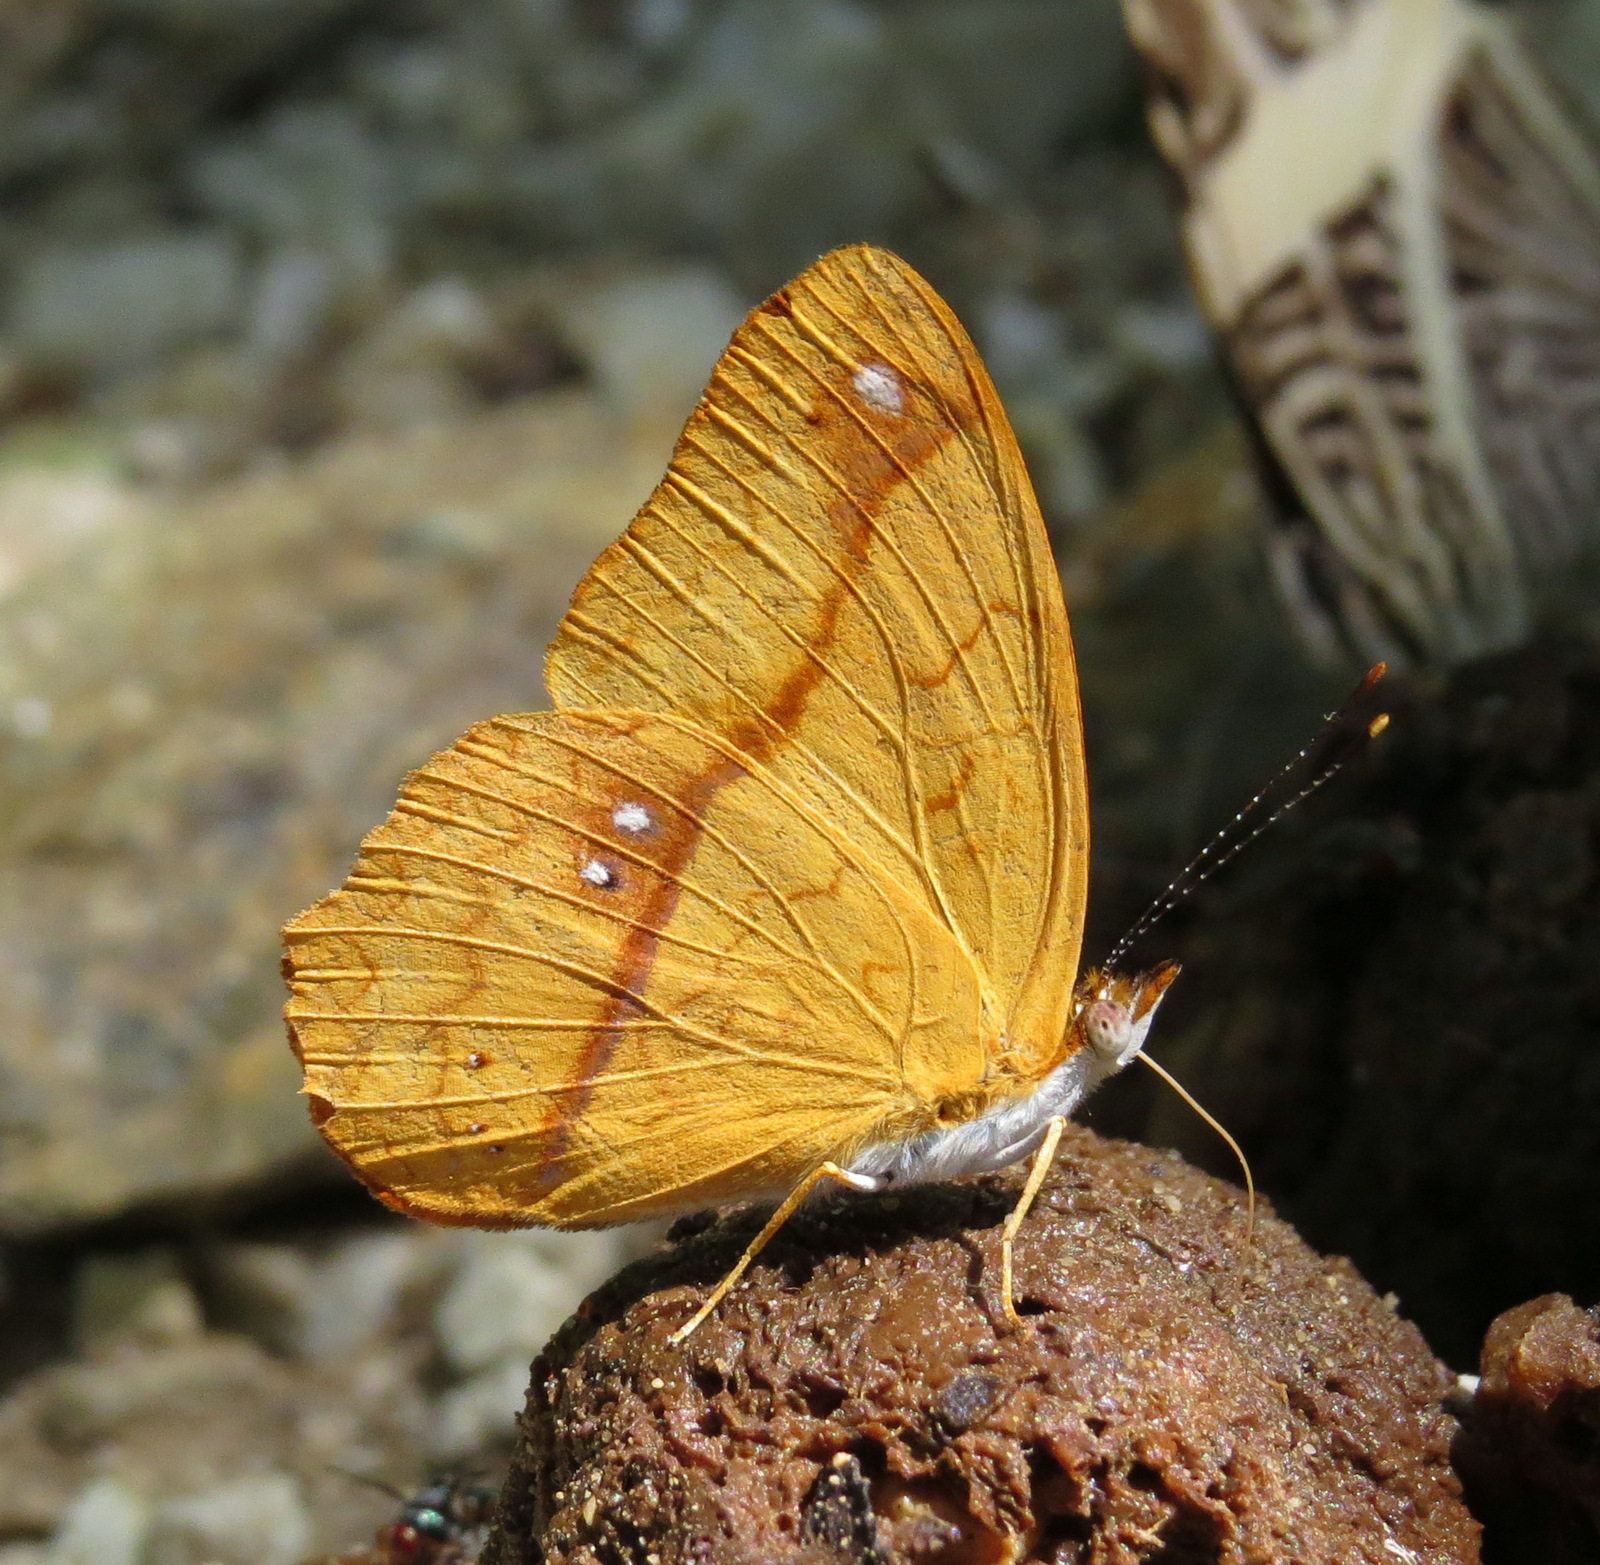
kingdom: Animalia
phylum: Arthropoda
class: Insecta
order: Lepidoptera
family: Nymphalidae
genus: Nica
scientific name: Nica flavilla
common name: Mandarin nica
